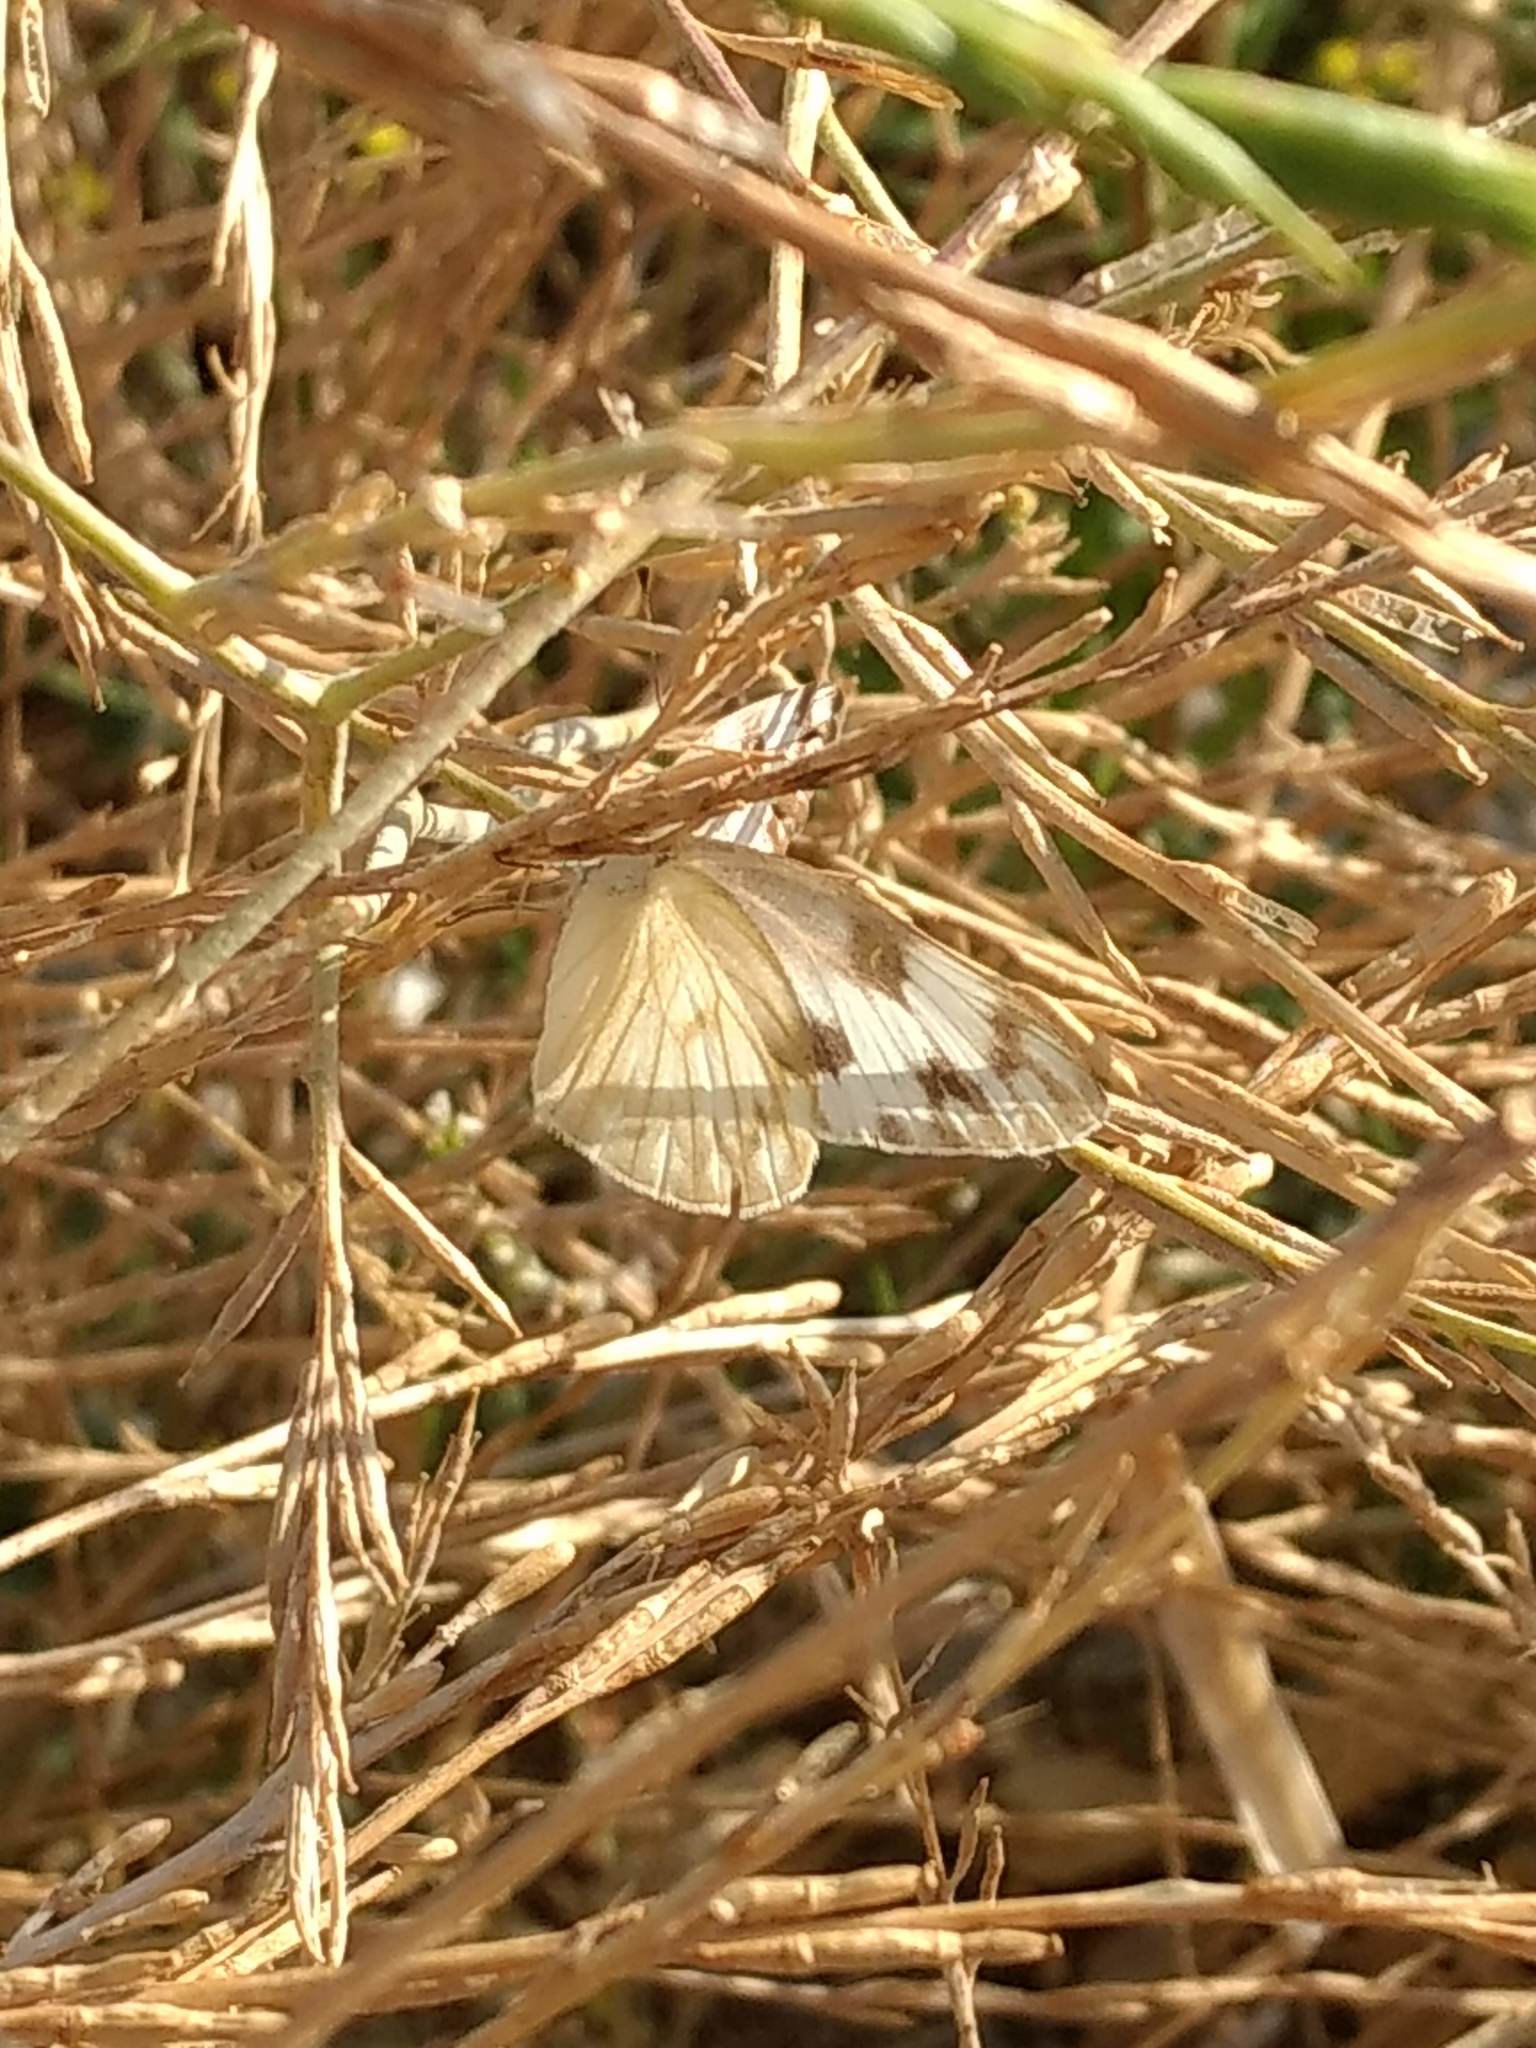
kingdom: Animalia
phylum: Arthropoda
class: Insecta
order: Lepidoptera
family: Pieridae
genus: Pontia
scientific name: Pontia protodice
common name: Checkered white
